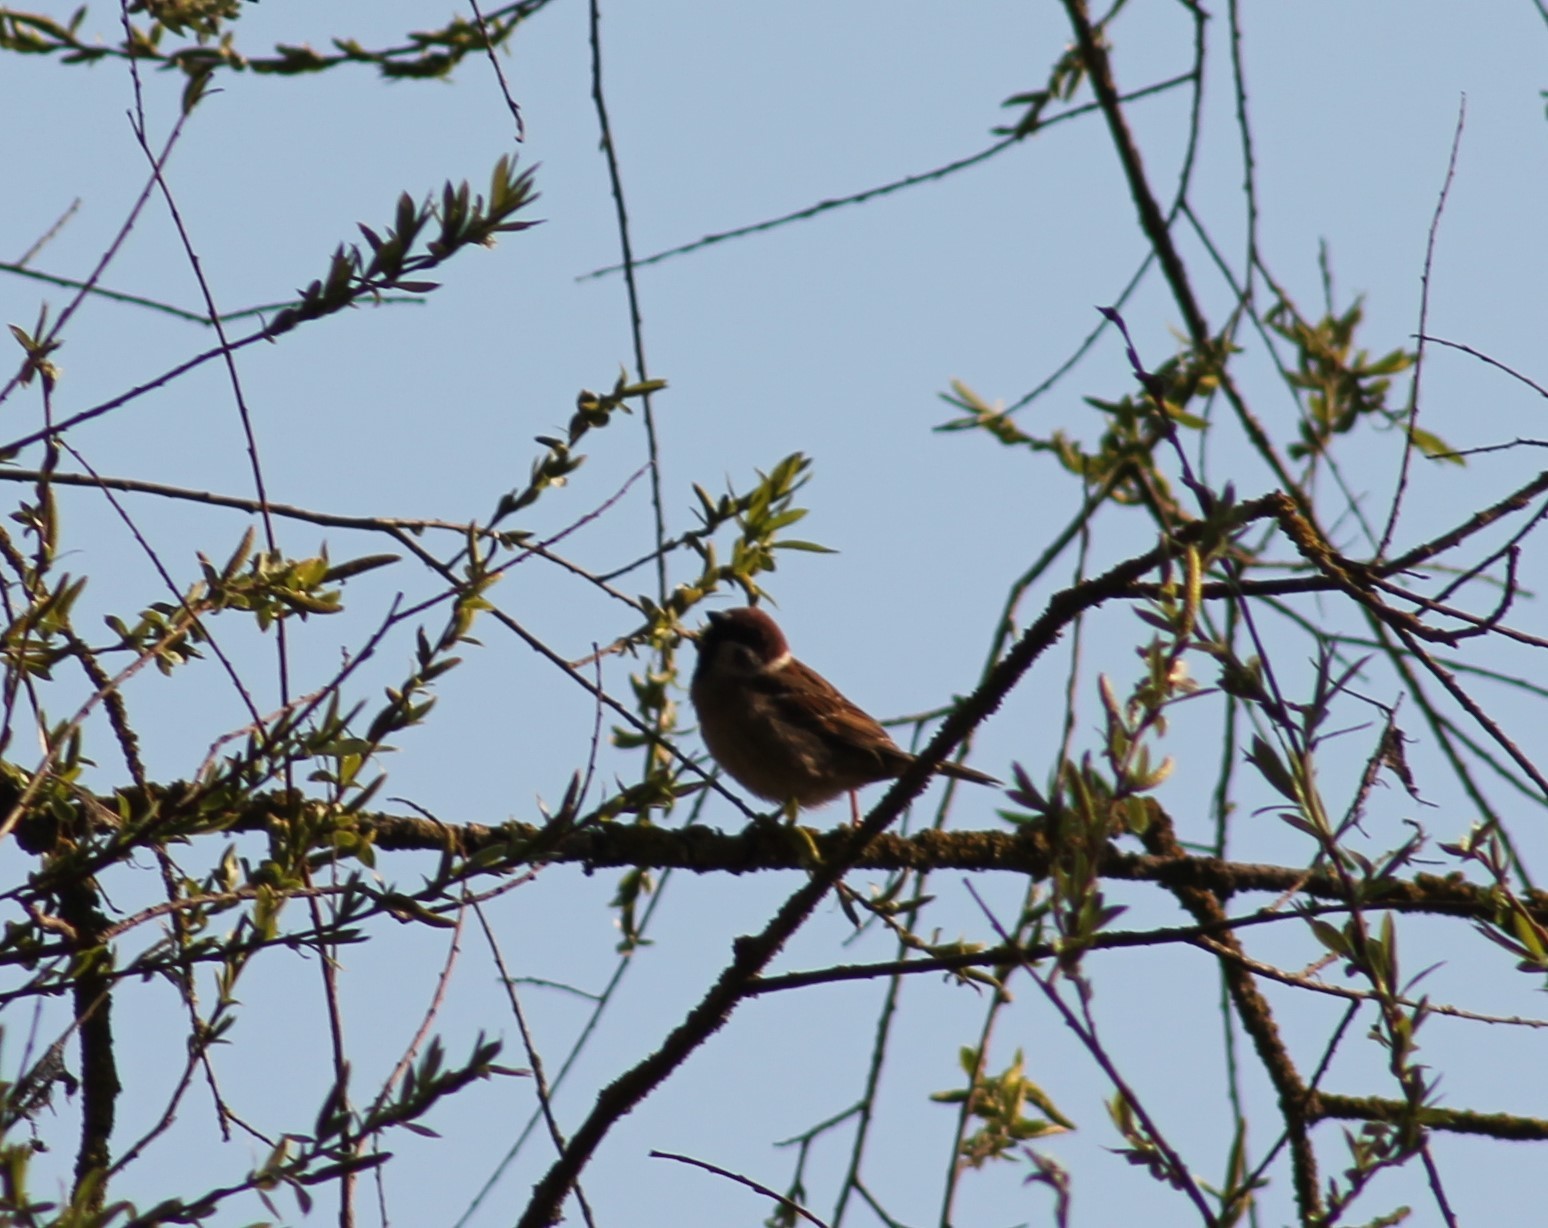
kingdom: Animalia
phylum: Chordata
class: Aves
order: Passeriformes
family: Passeridae
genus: Passer
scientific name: Passer montanus
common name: Eurasian tree sparrow
